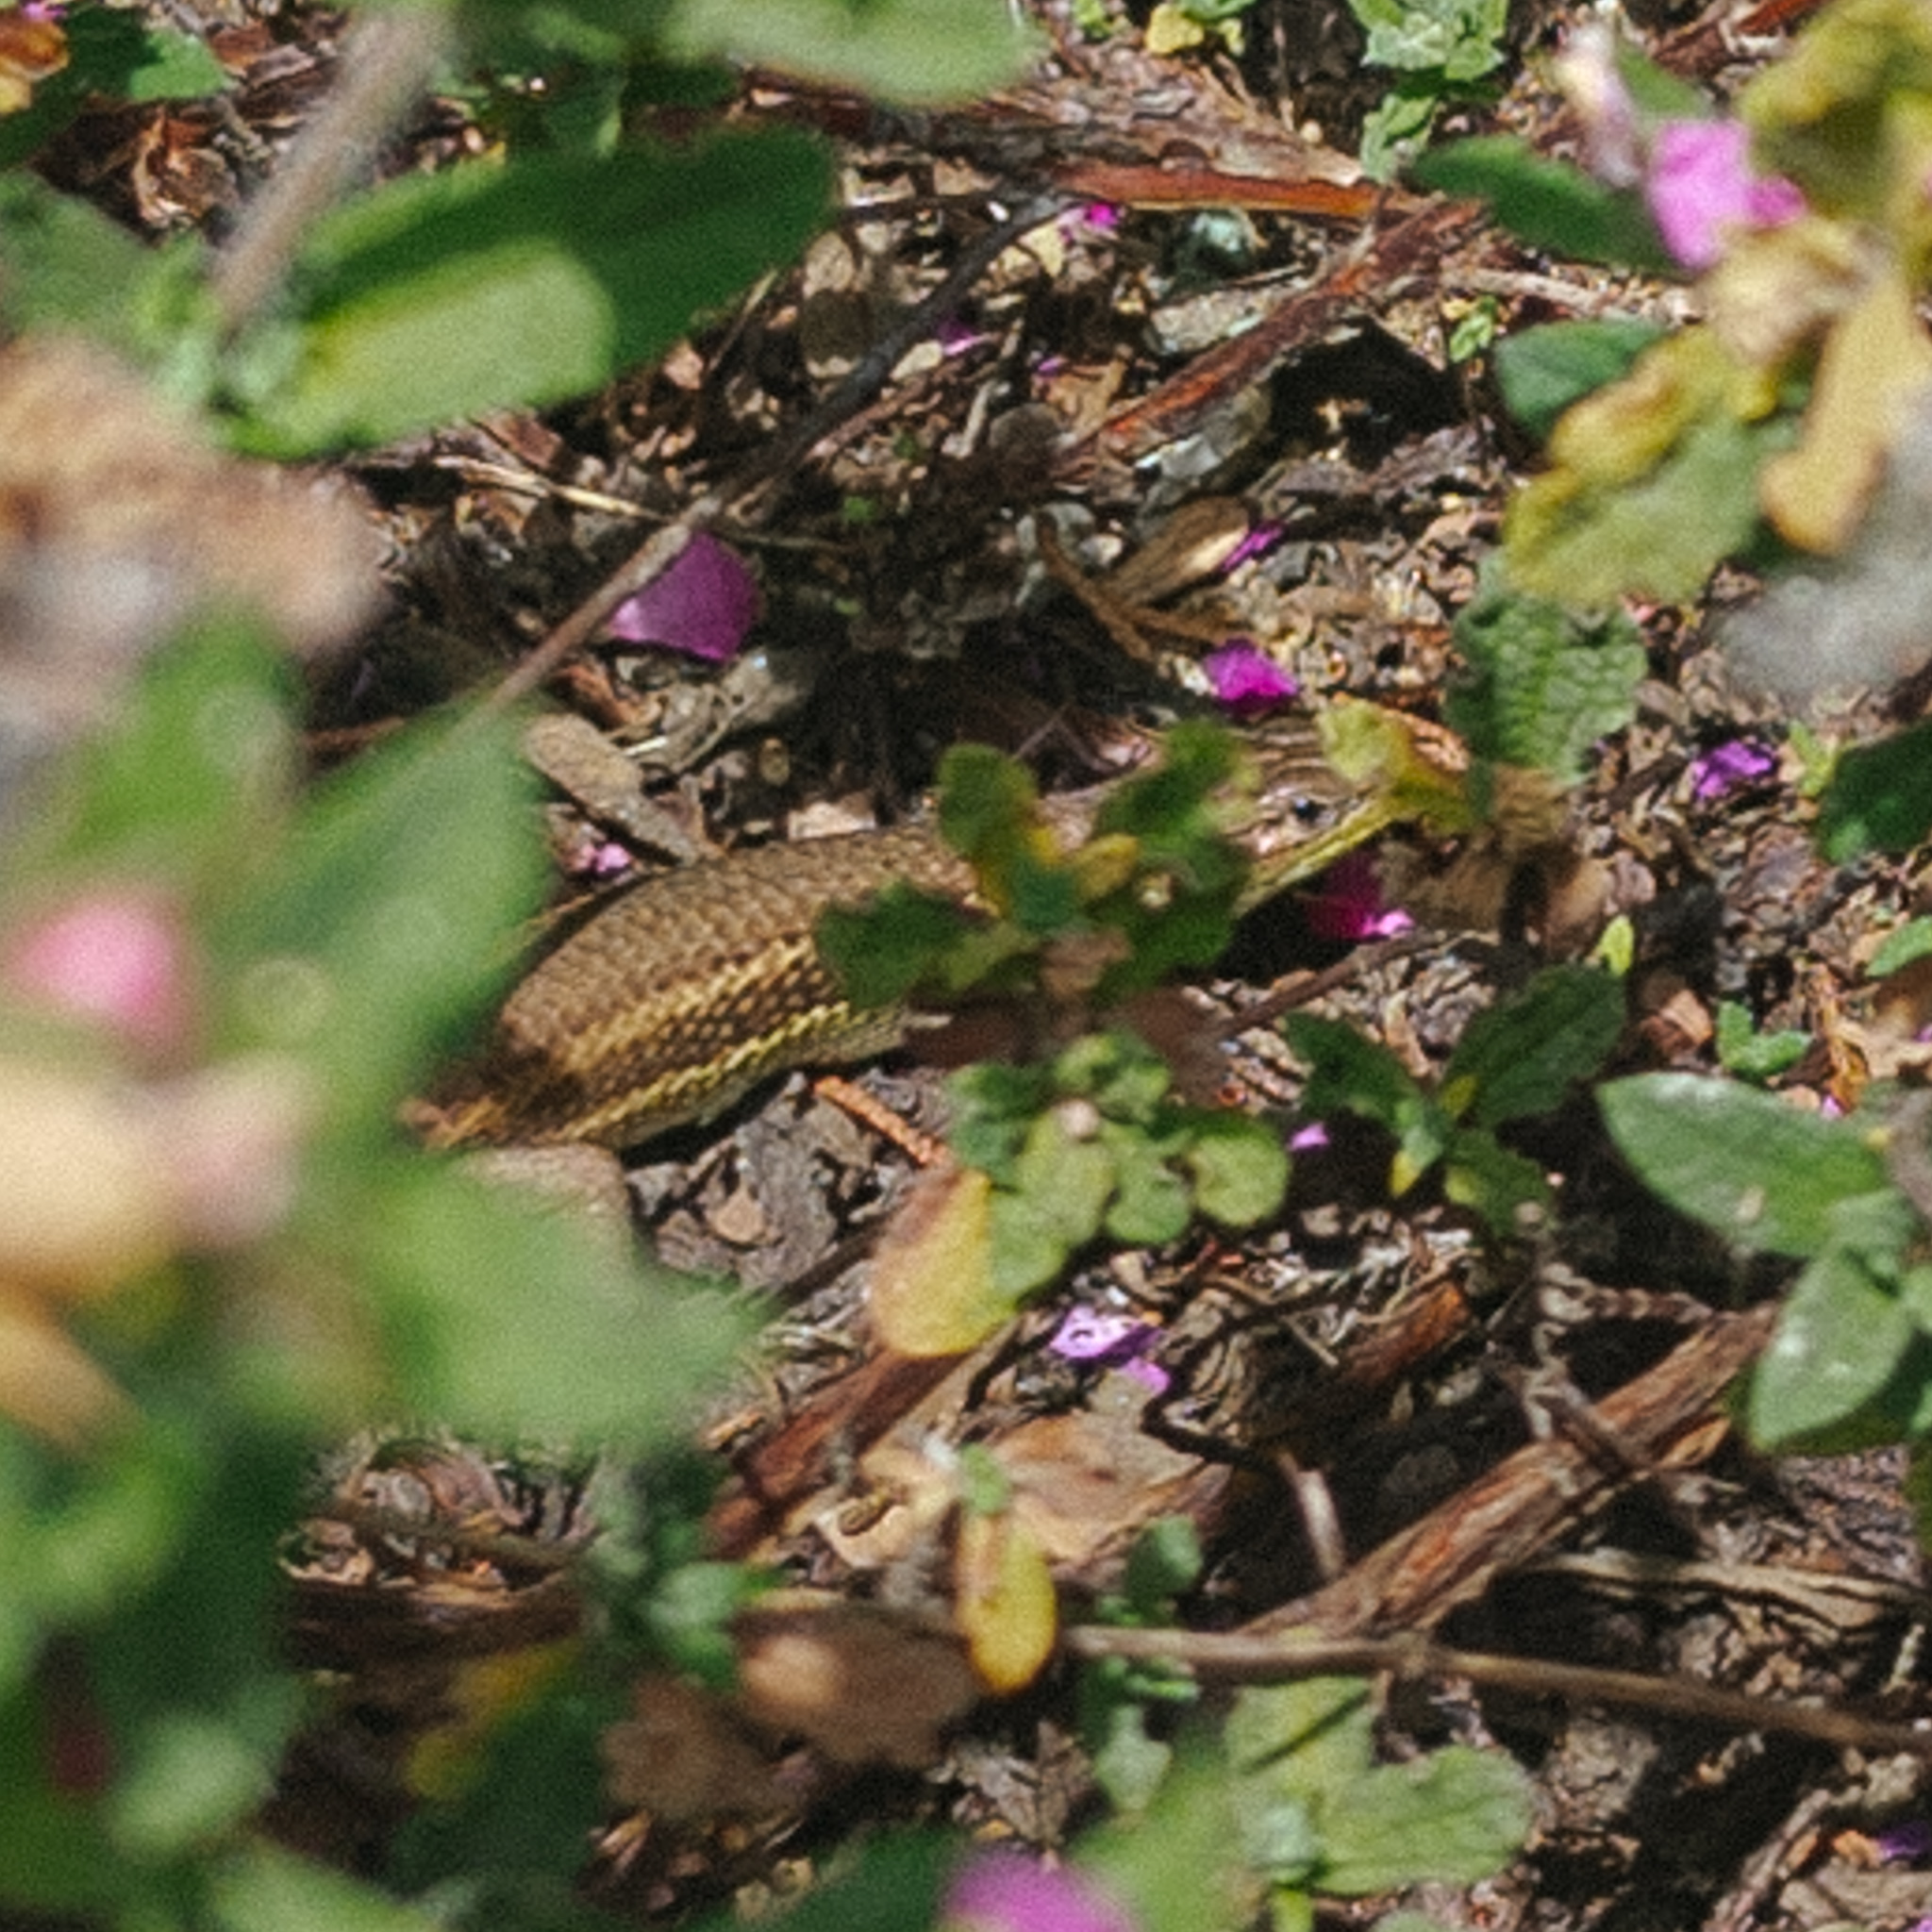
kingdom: Animalia
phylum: Chordata
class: Squamata
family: Lacertidae
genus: Psammodromus
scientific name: Psammodromus algirus
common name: Algerian psammodromus
